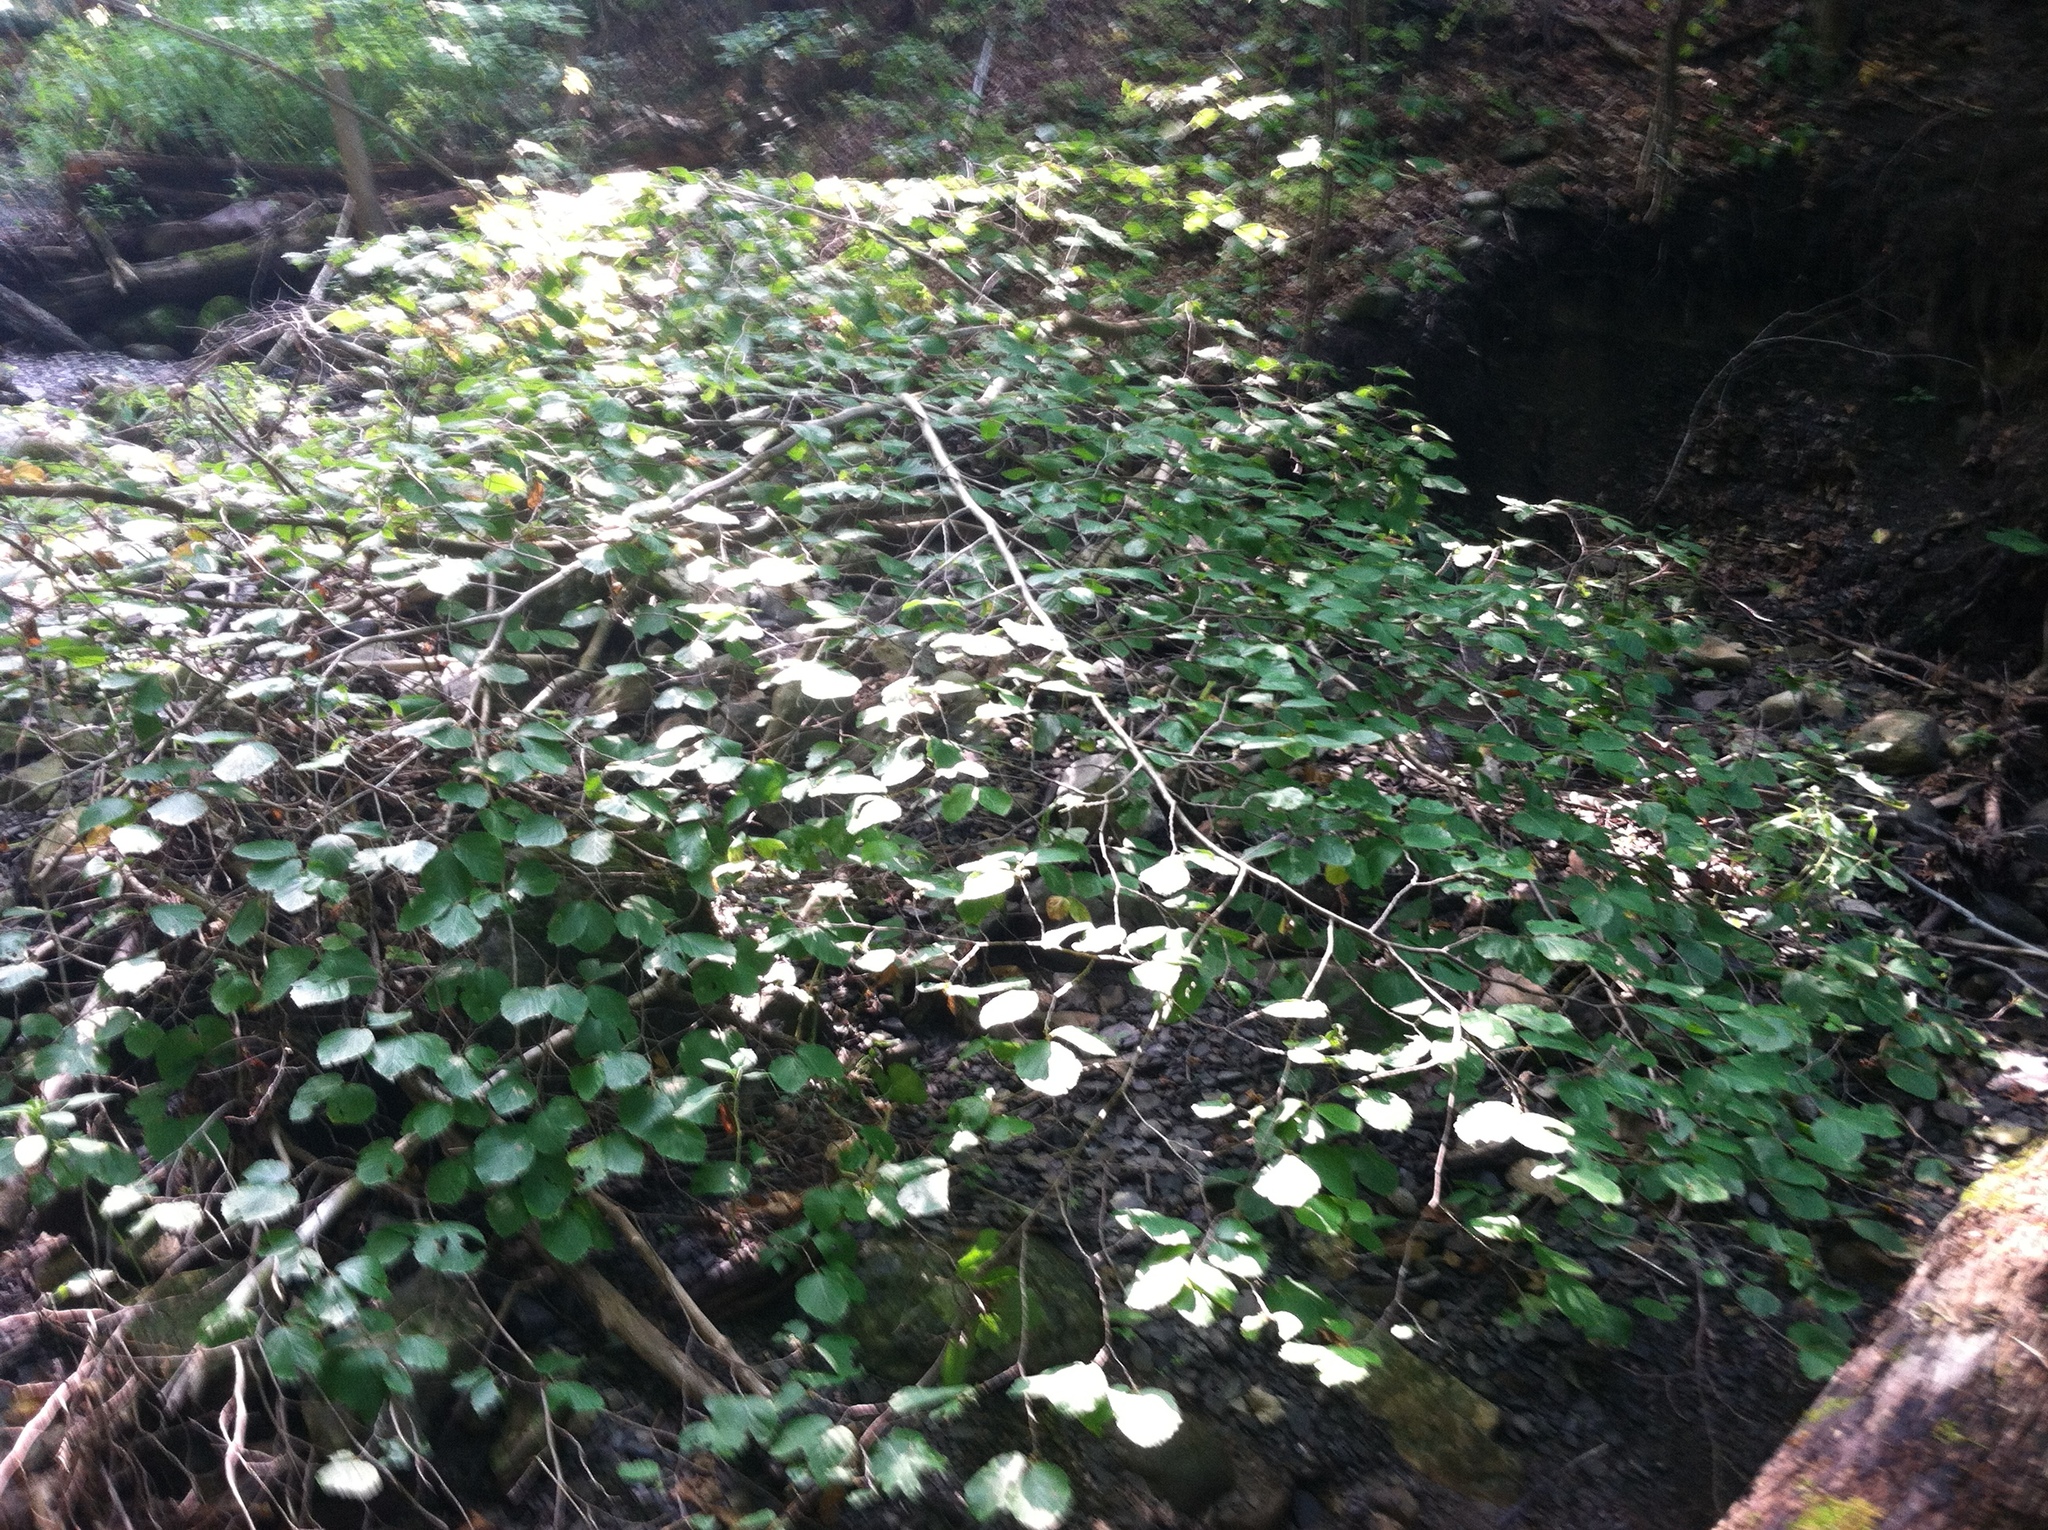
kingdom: Plantae
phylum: Tracheophyta
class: Magnoliopsida
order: Saxifragales
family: Hamamelidaceae
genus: Hamamelis
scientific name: Hamamelis virginiana
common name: Witch-hazel
